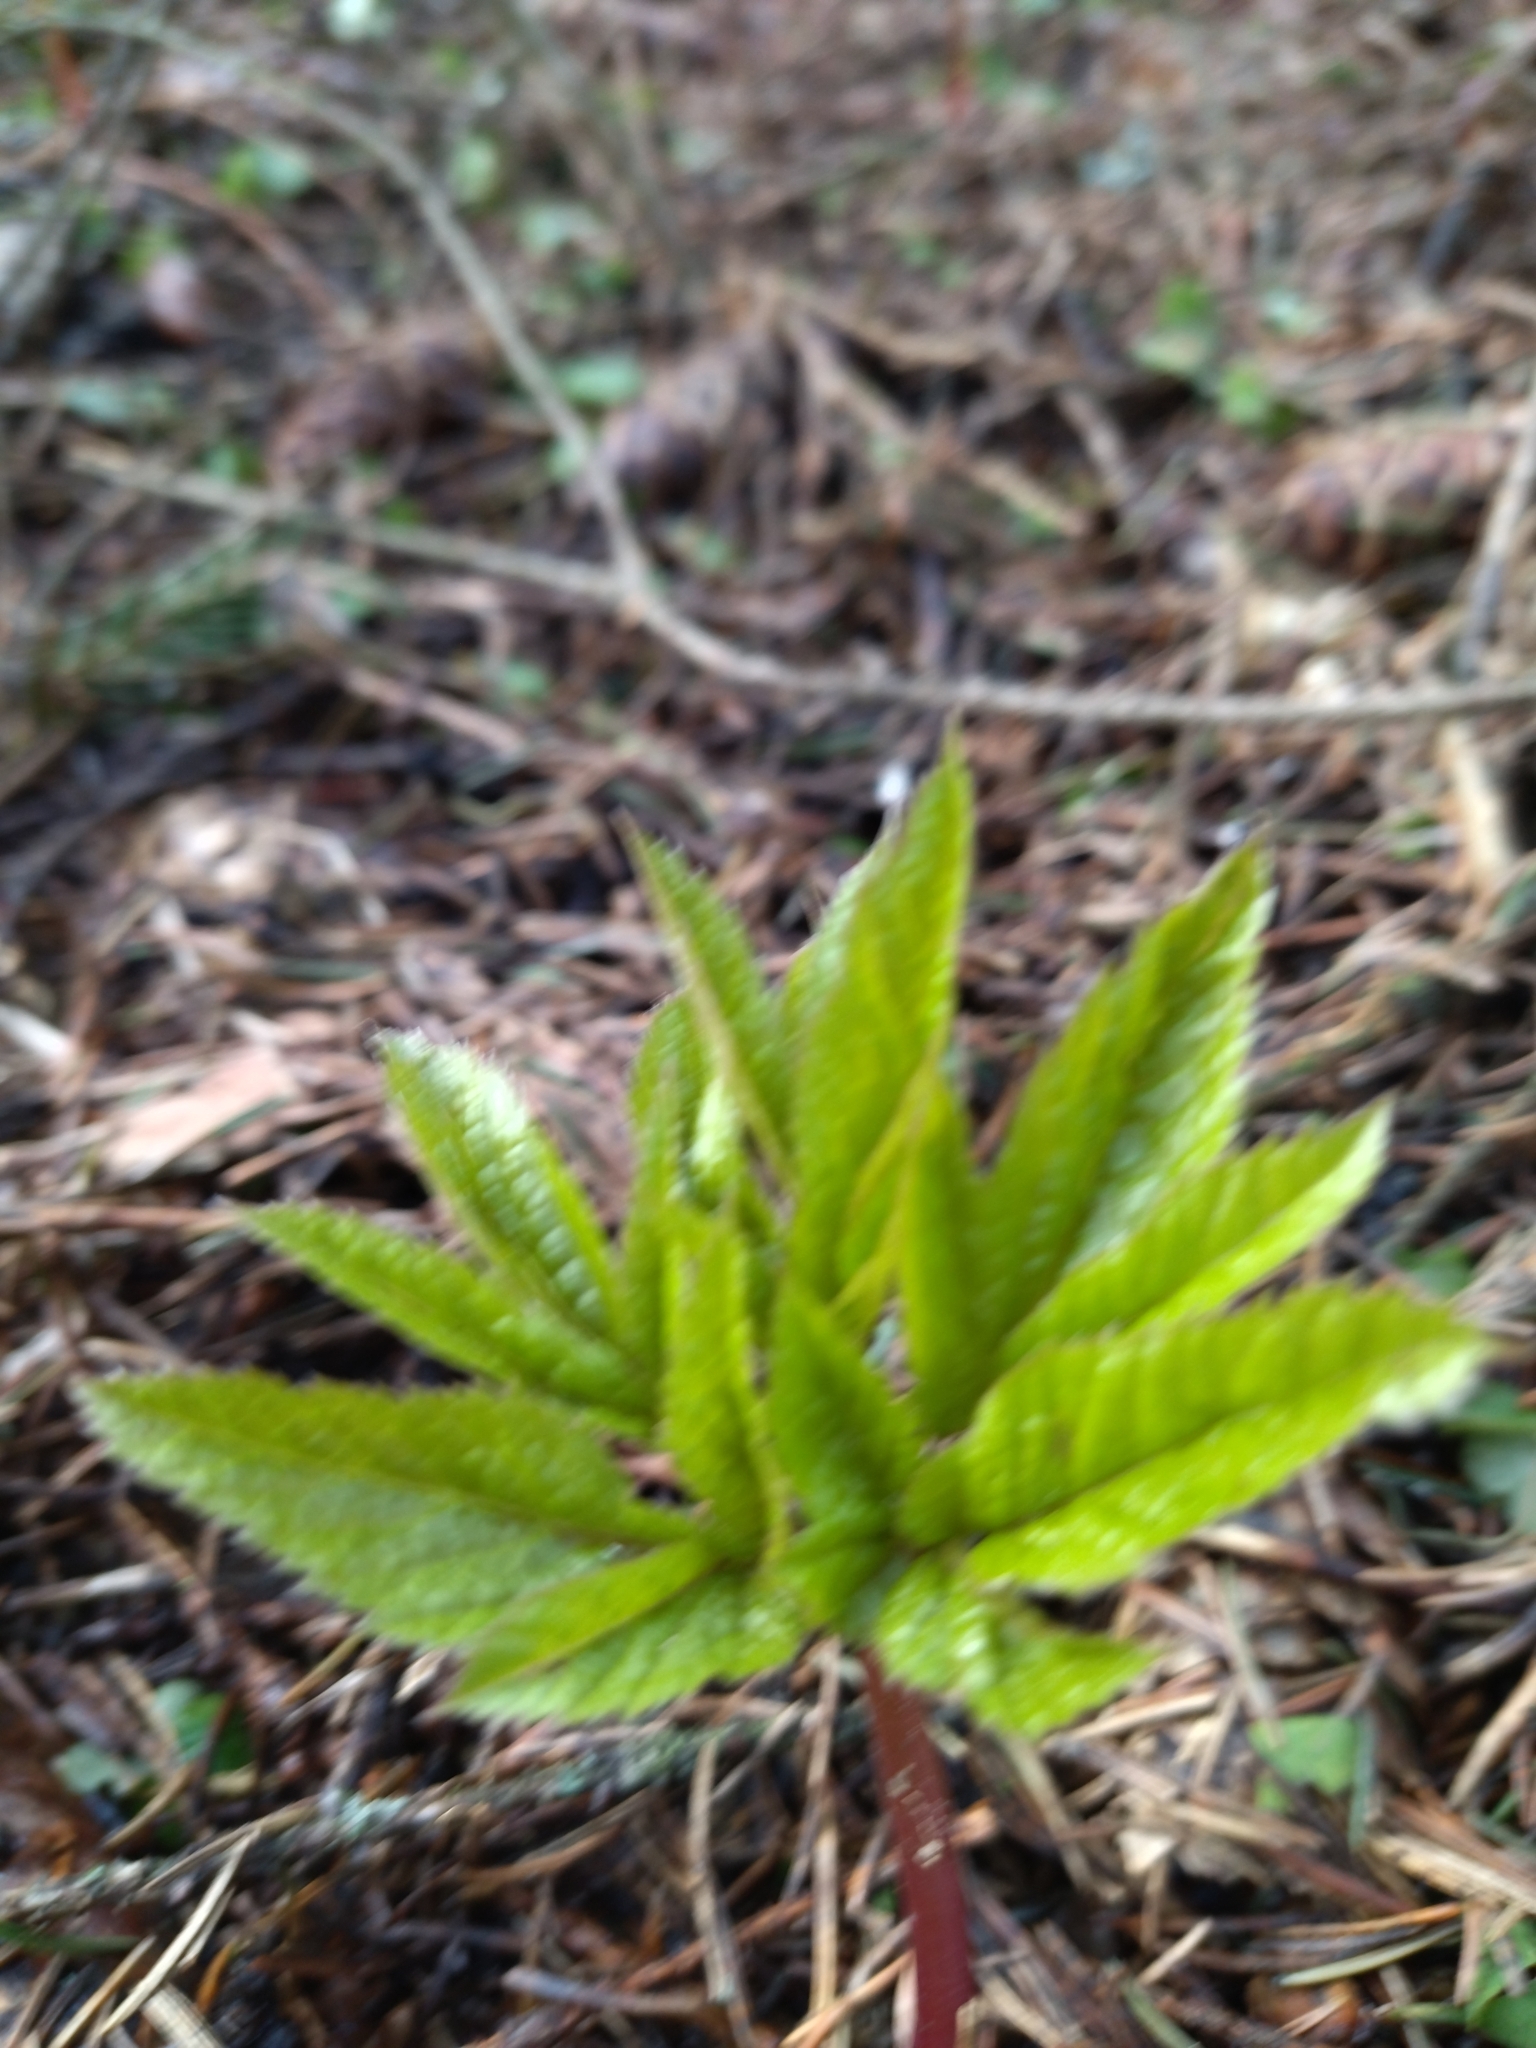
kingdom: Plantae
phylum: Tracheophyta
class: Magnoliopsida
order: Apiales
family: Apiaceae
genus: Aegopodium
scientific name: Aegopodium podagraria
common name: Ground-elder
